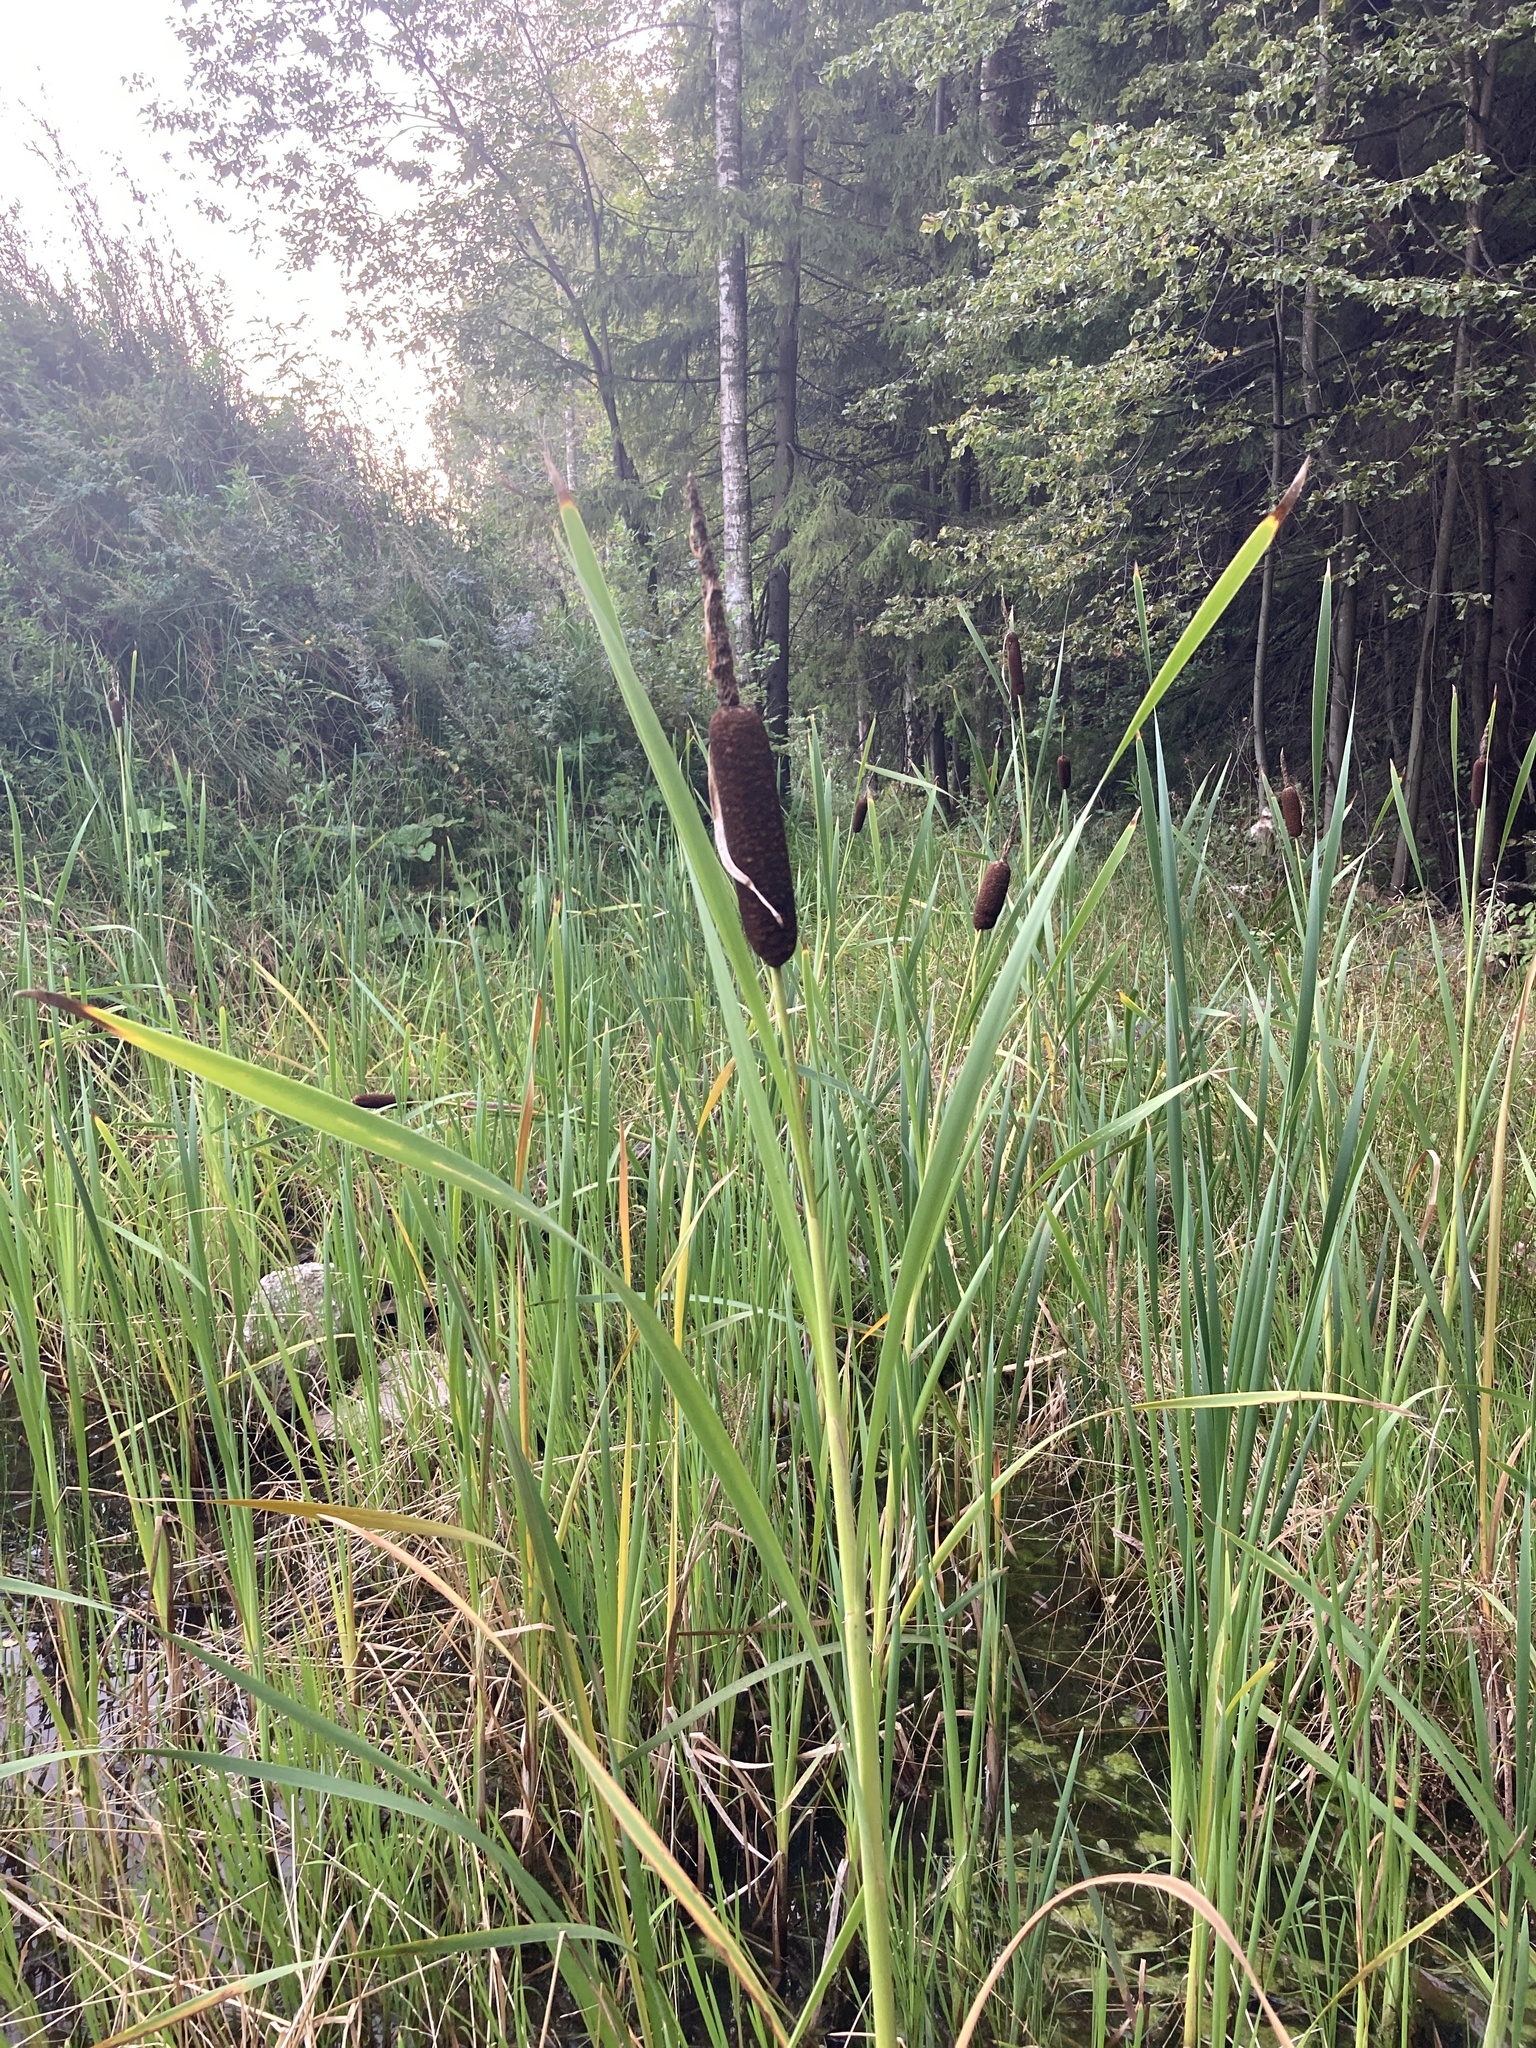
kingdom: Plantae
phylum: Tracheophyta
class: Liliopsida
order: Poales
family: Typhaceae
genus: Typha
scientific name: Typha latifolia
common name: Broadleaf cattail
